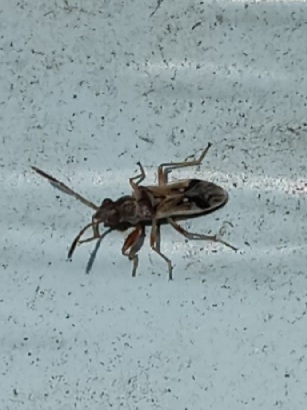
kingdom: Animalia
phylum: Arthropoda
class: Insecta
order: Hemiptera
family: Rhyparochromidae
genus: Pseudopachybrachius
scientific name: Pseudopachybrachius vinctus
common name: Dirt-colored seed bug
